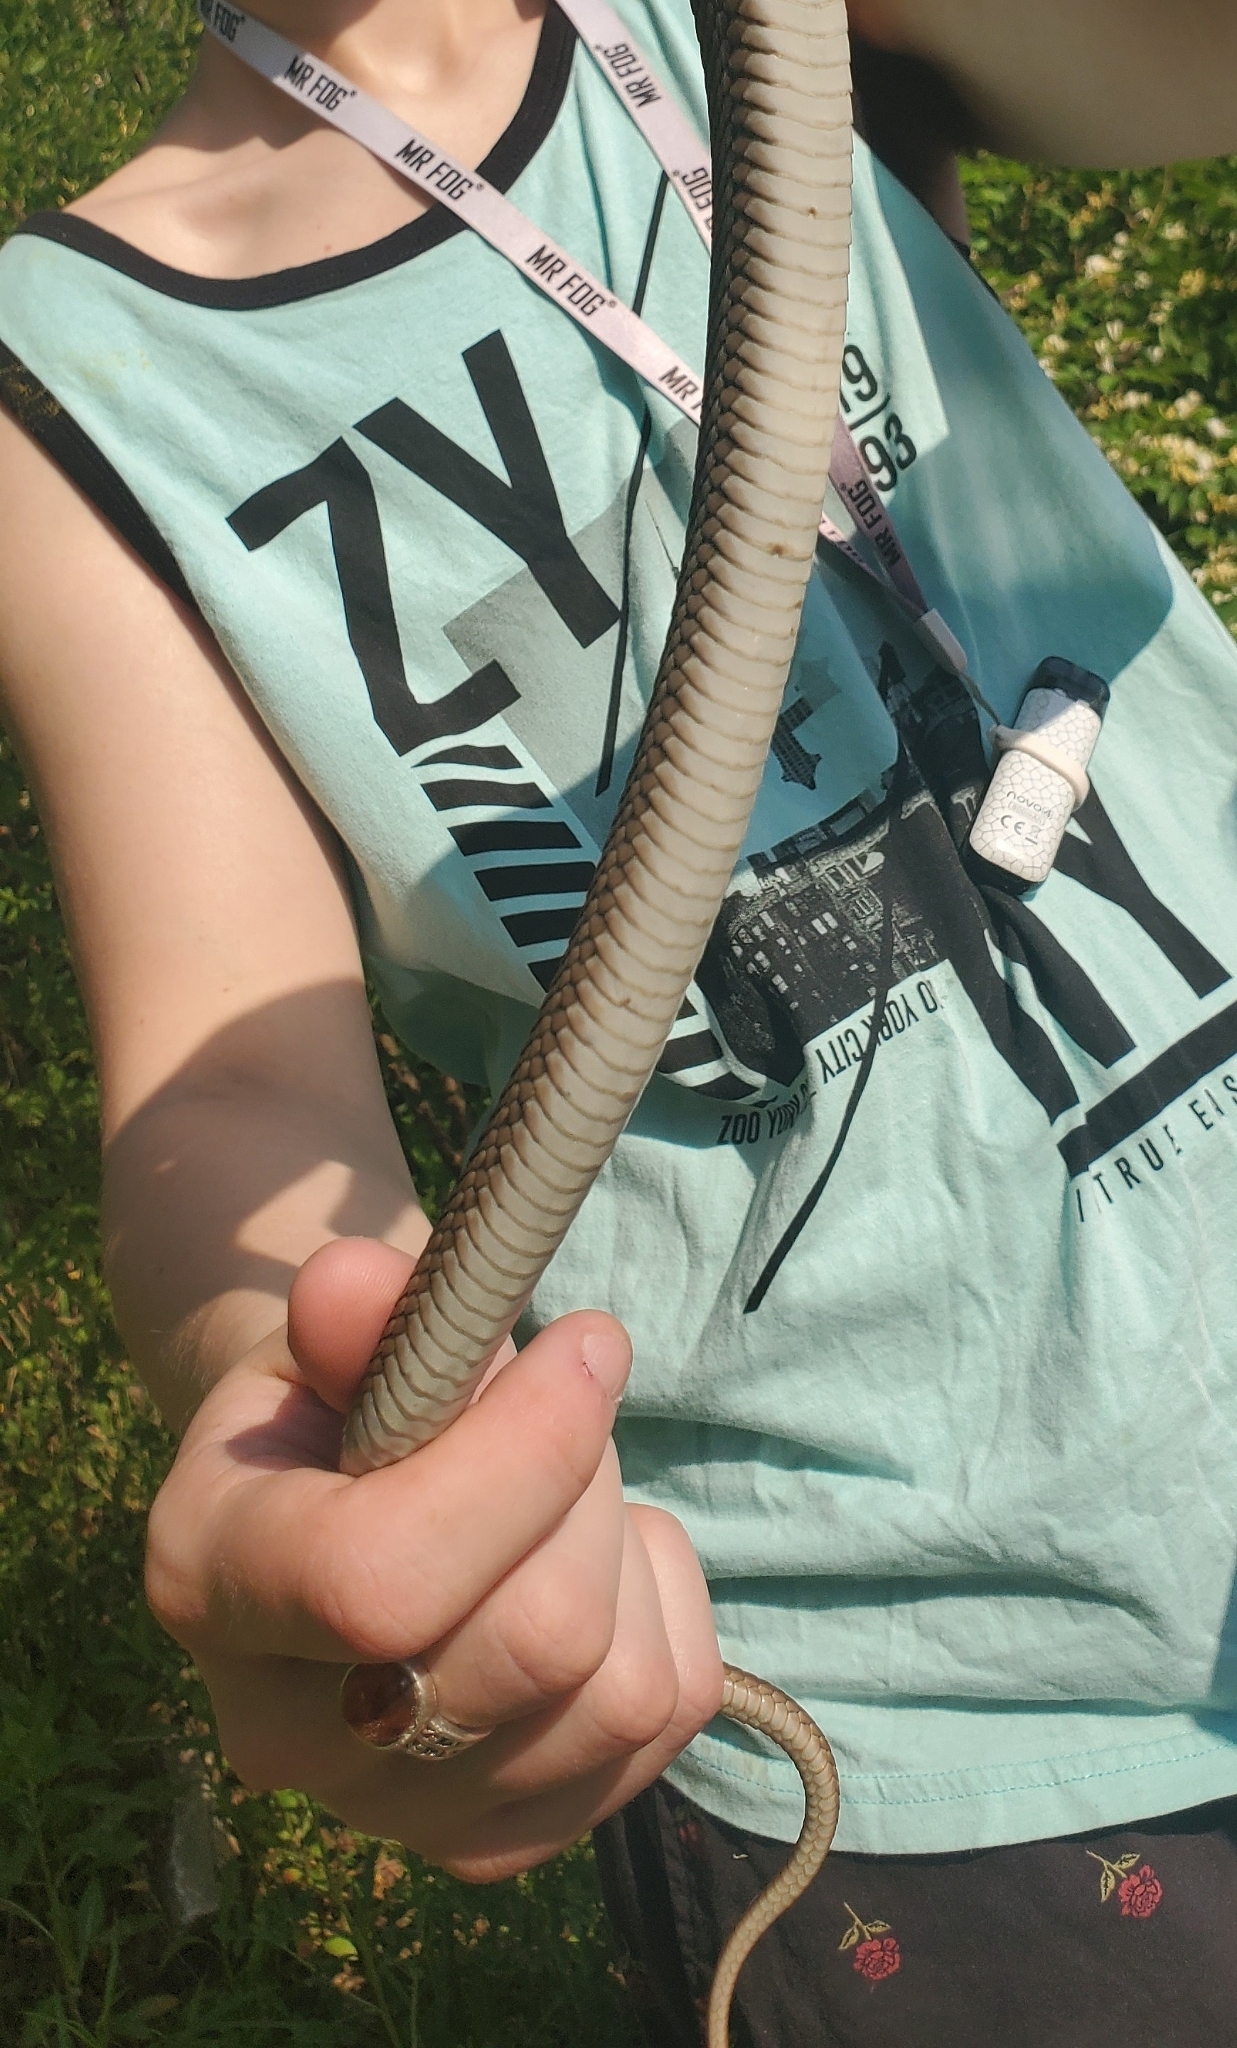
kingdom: Animalia
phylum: Chordata
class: Squamata
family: Colubridae
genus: Thamnophis
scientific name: Thamnophis sirtalis
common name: Common garter snake
